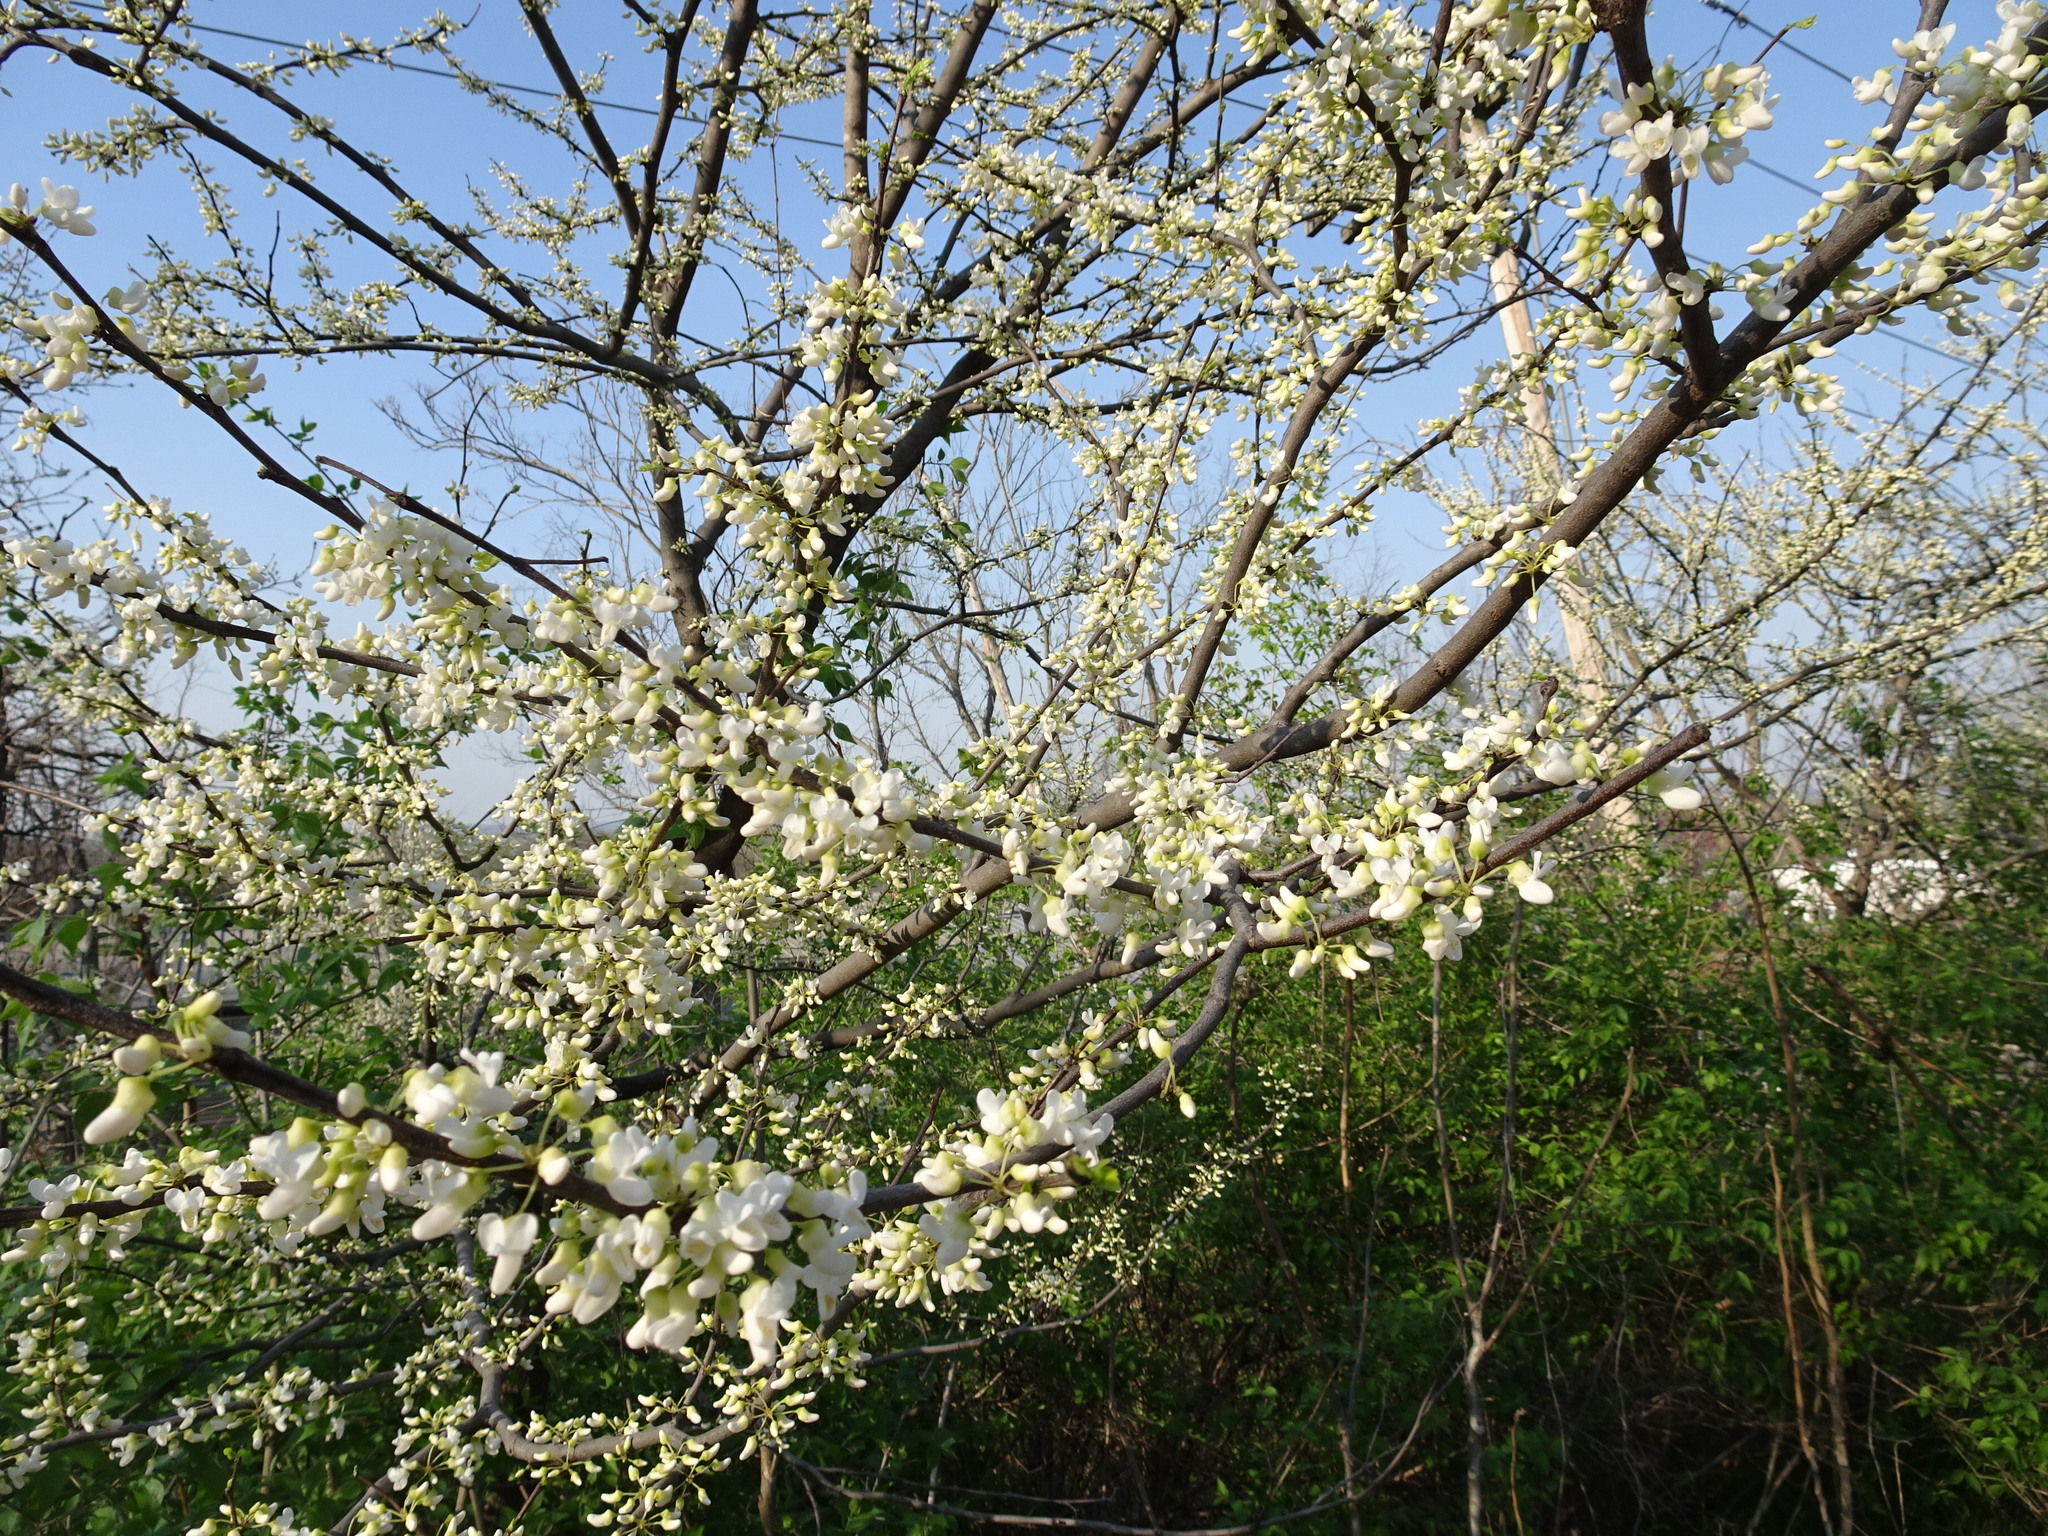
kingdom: Plantae
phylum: Tracheophyta
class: Magnoliopsida
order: Fabales
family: Fabaceae
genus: Cercis
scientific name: Cercis canadensis
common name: Eastern redbud
